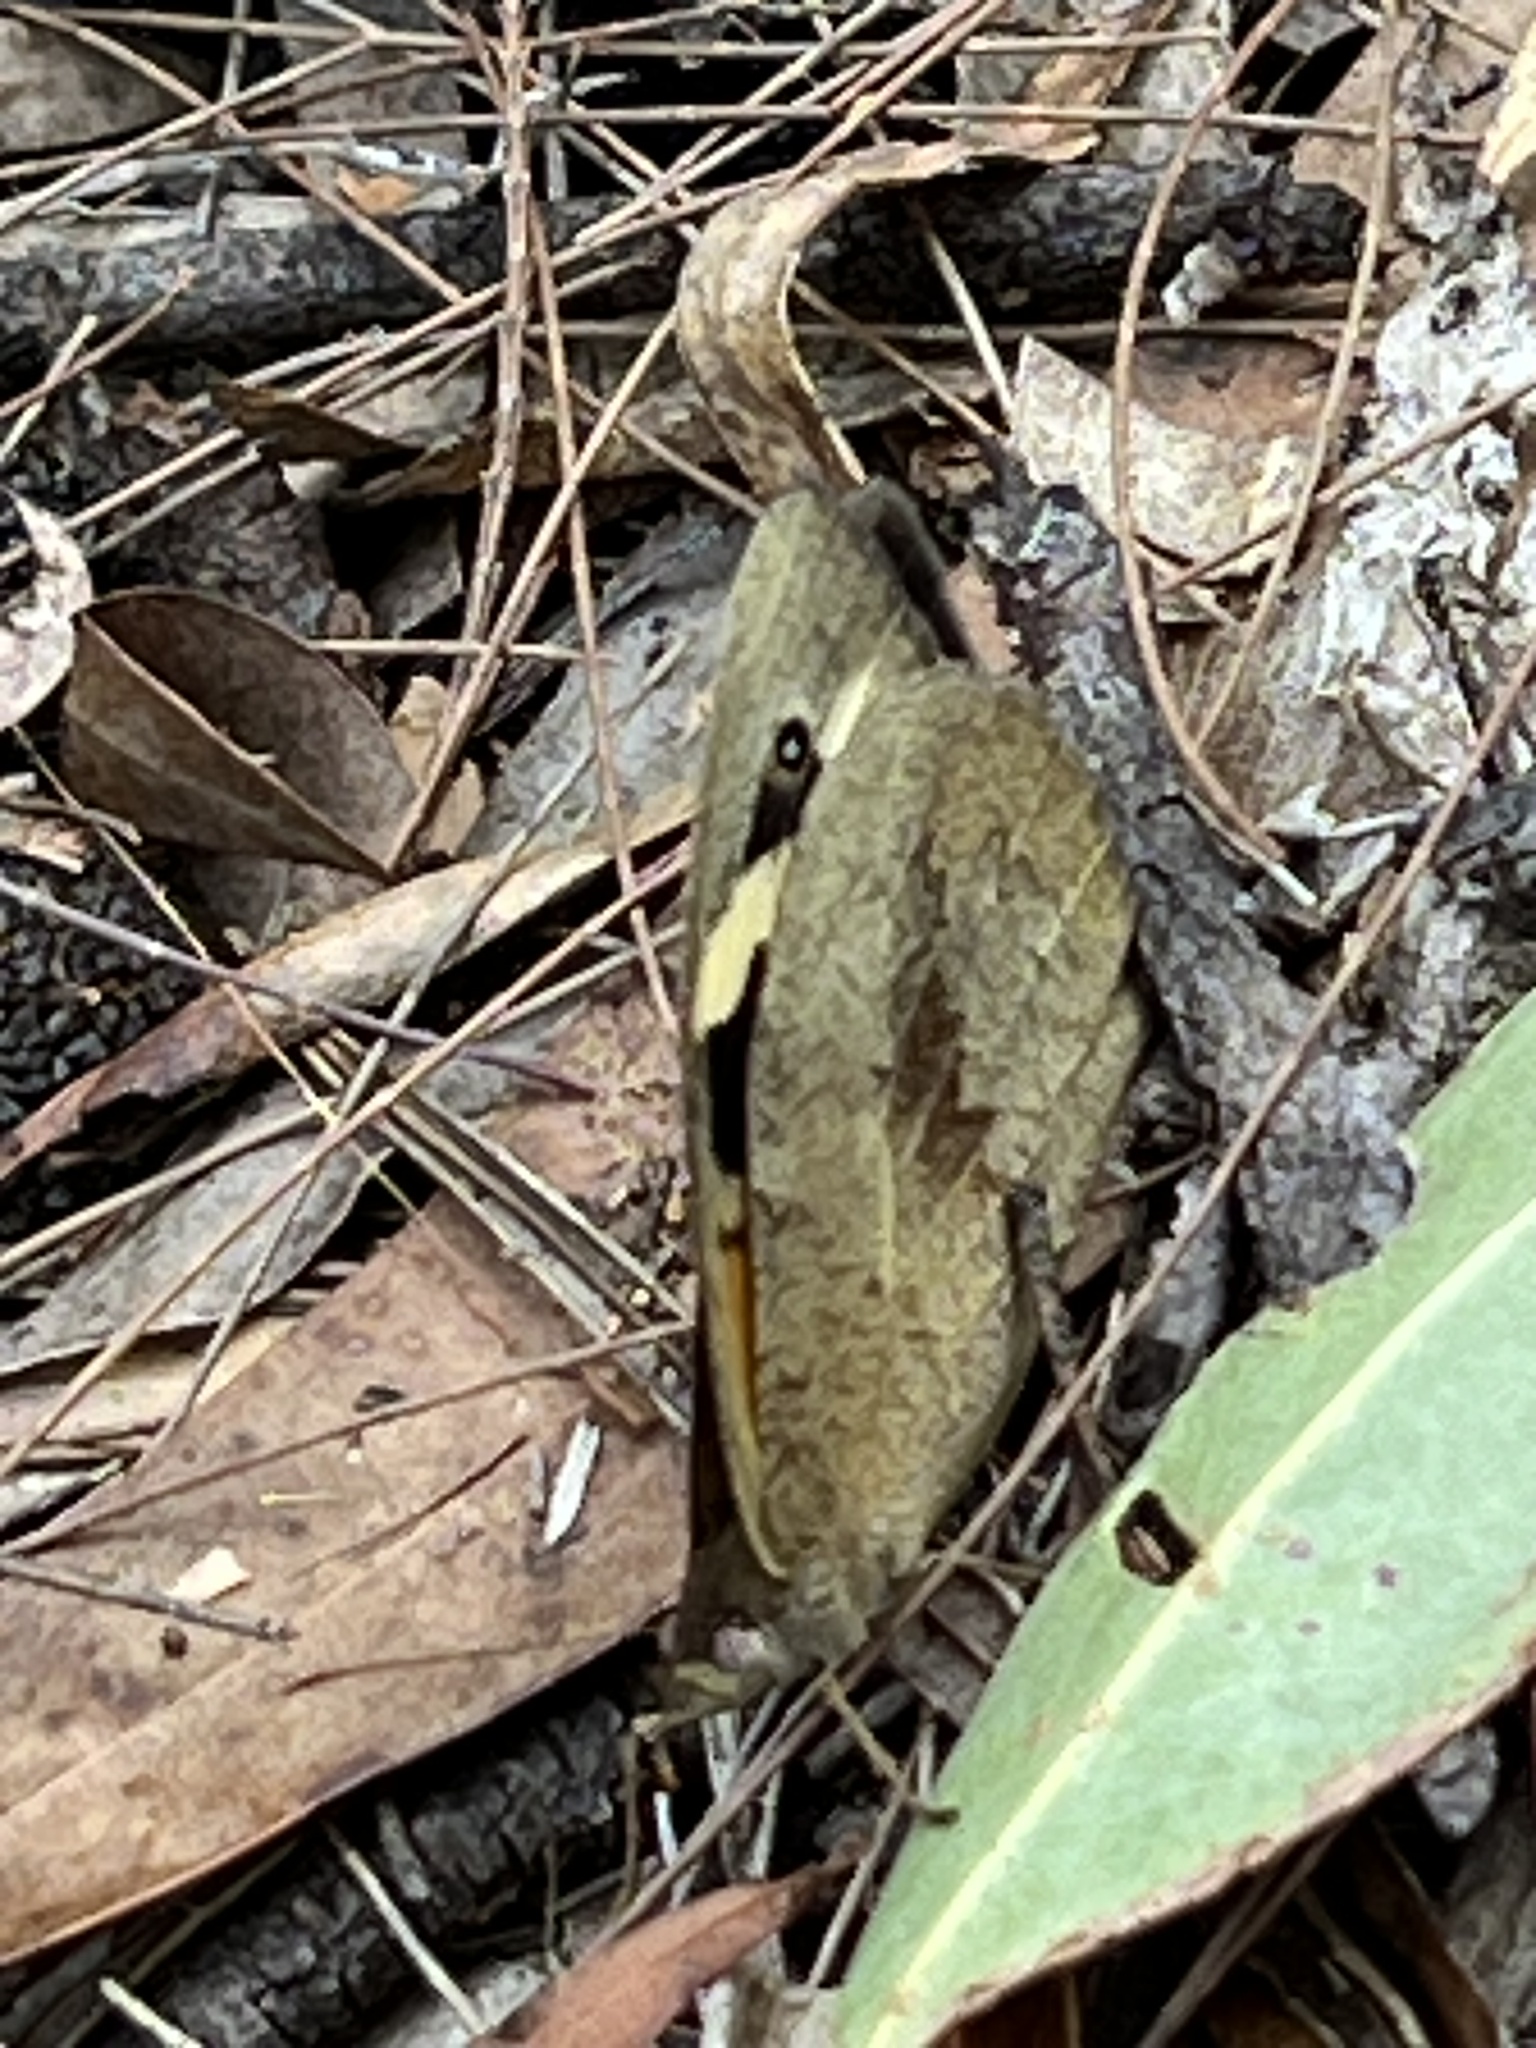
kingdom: Animalia
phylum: Arthropoda
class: Insecta
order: Lepidoptera
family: Nymphalidae
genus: Geitoneura
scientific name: Geitoneura klugii
